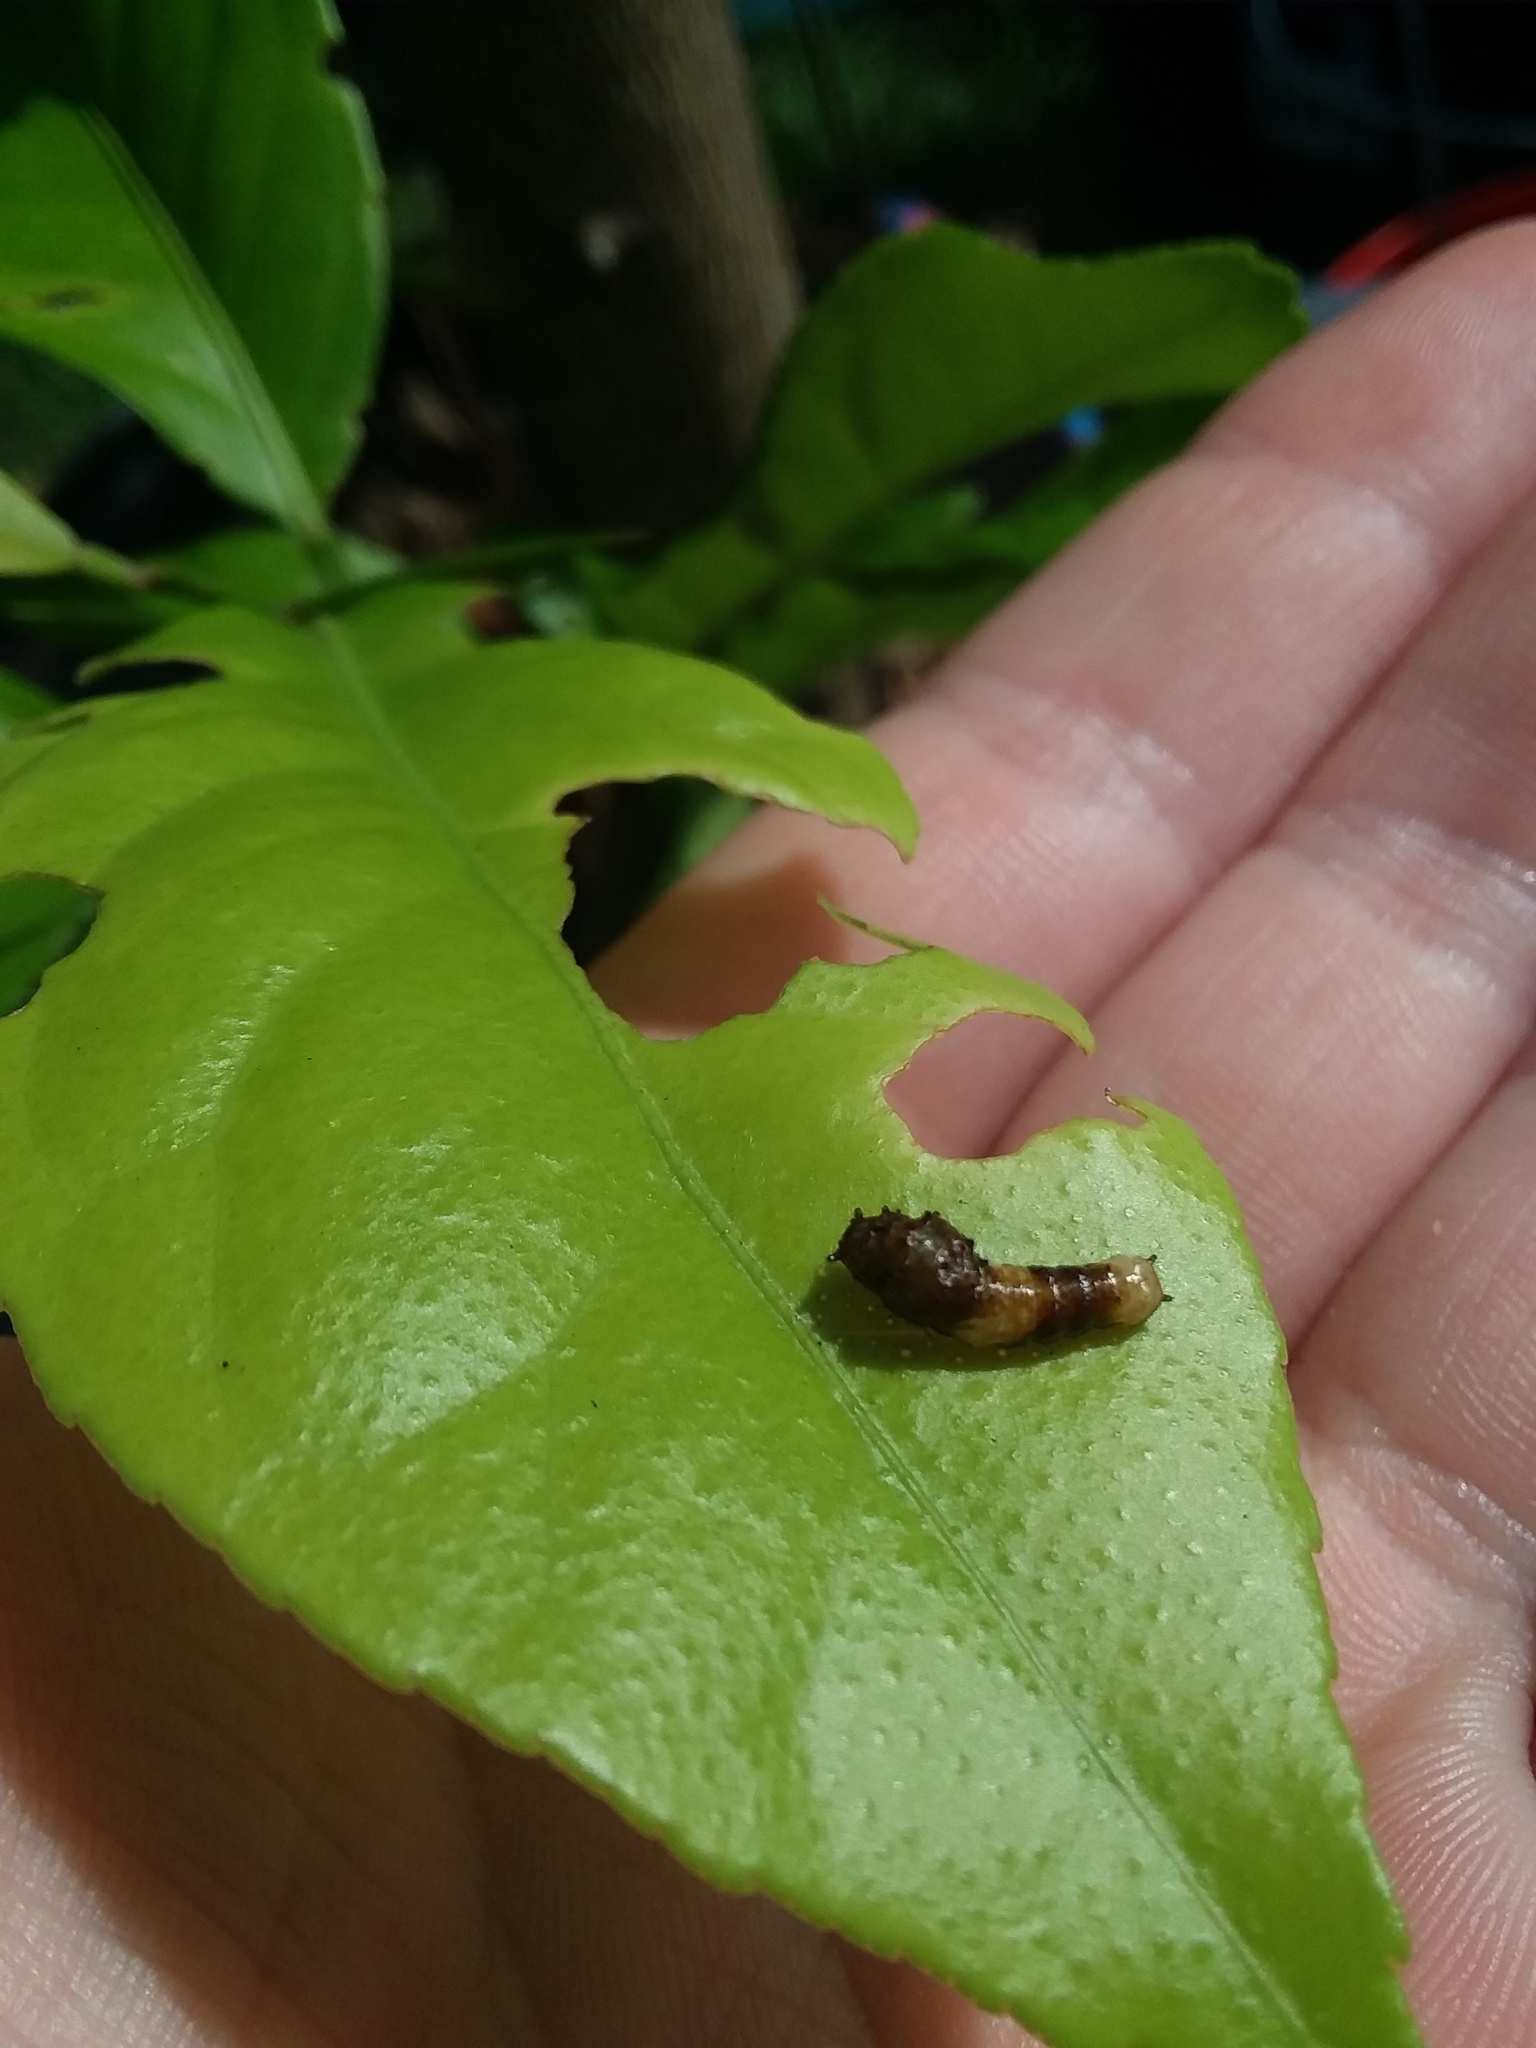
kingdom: Animalia
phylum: Arthropoda
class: Insecta
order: Lepidoptera
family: Papilionidae
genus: Papilio
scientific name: Papilio cresphontes
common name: Giant swallowtail
